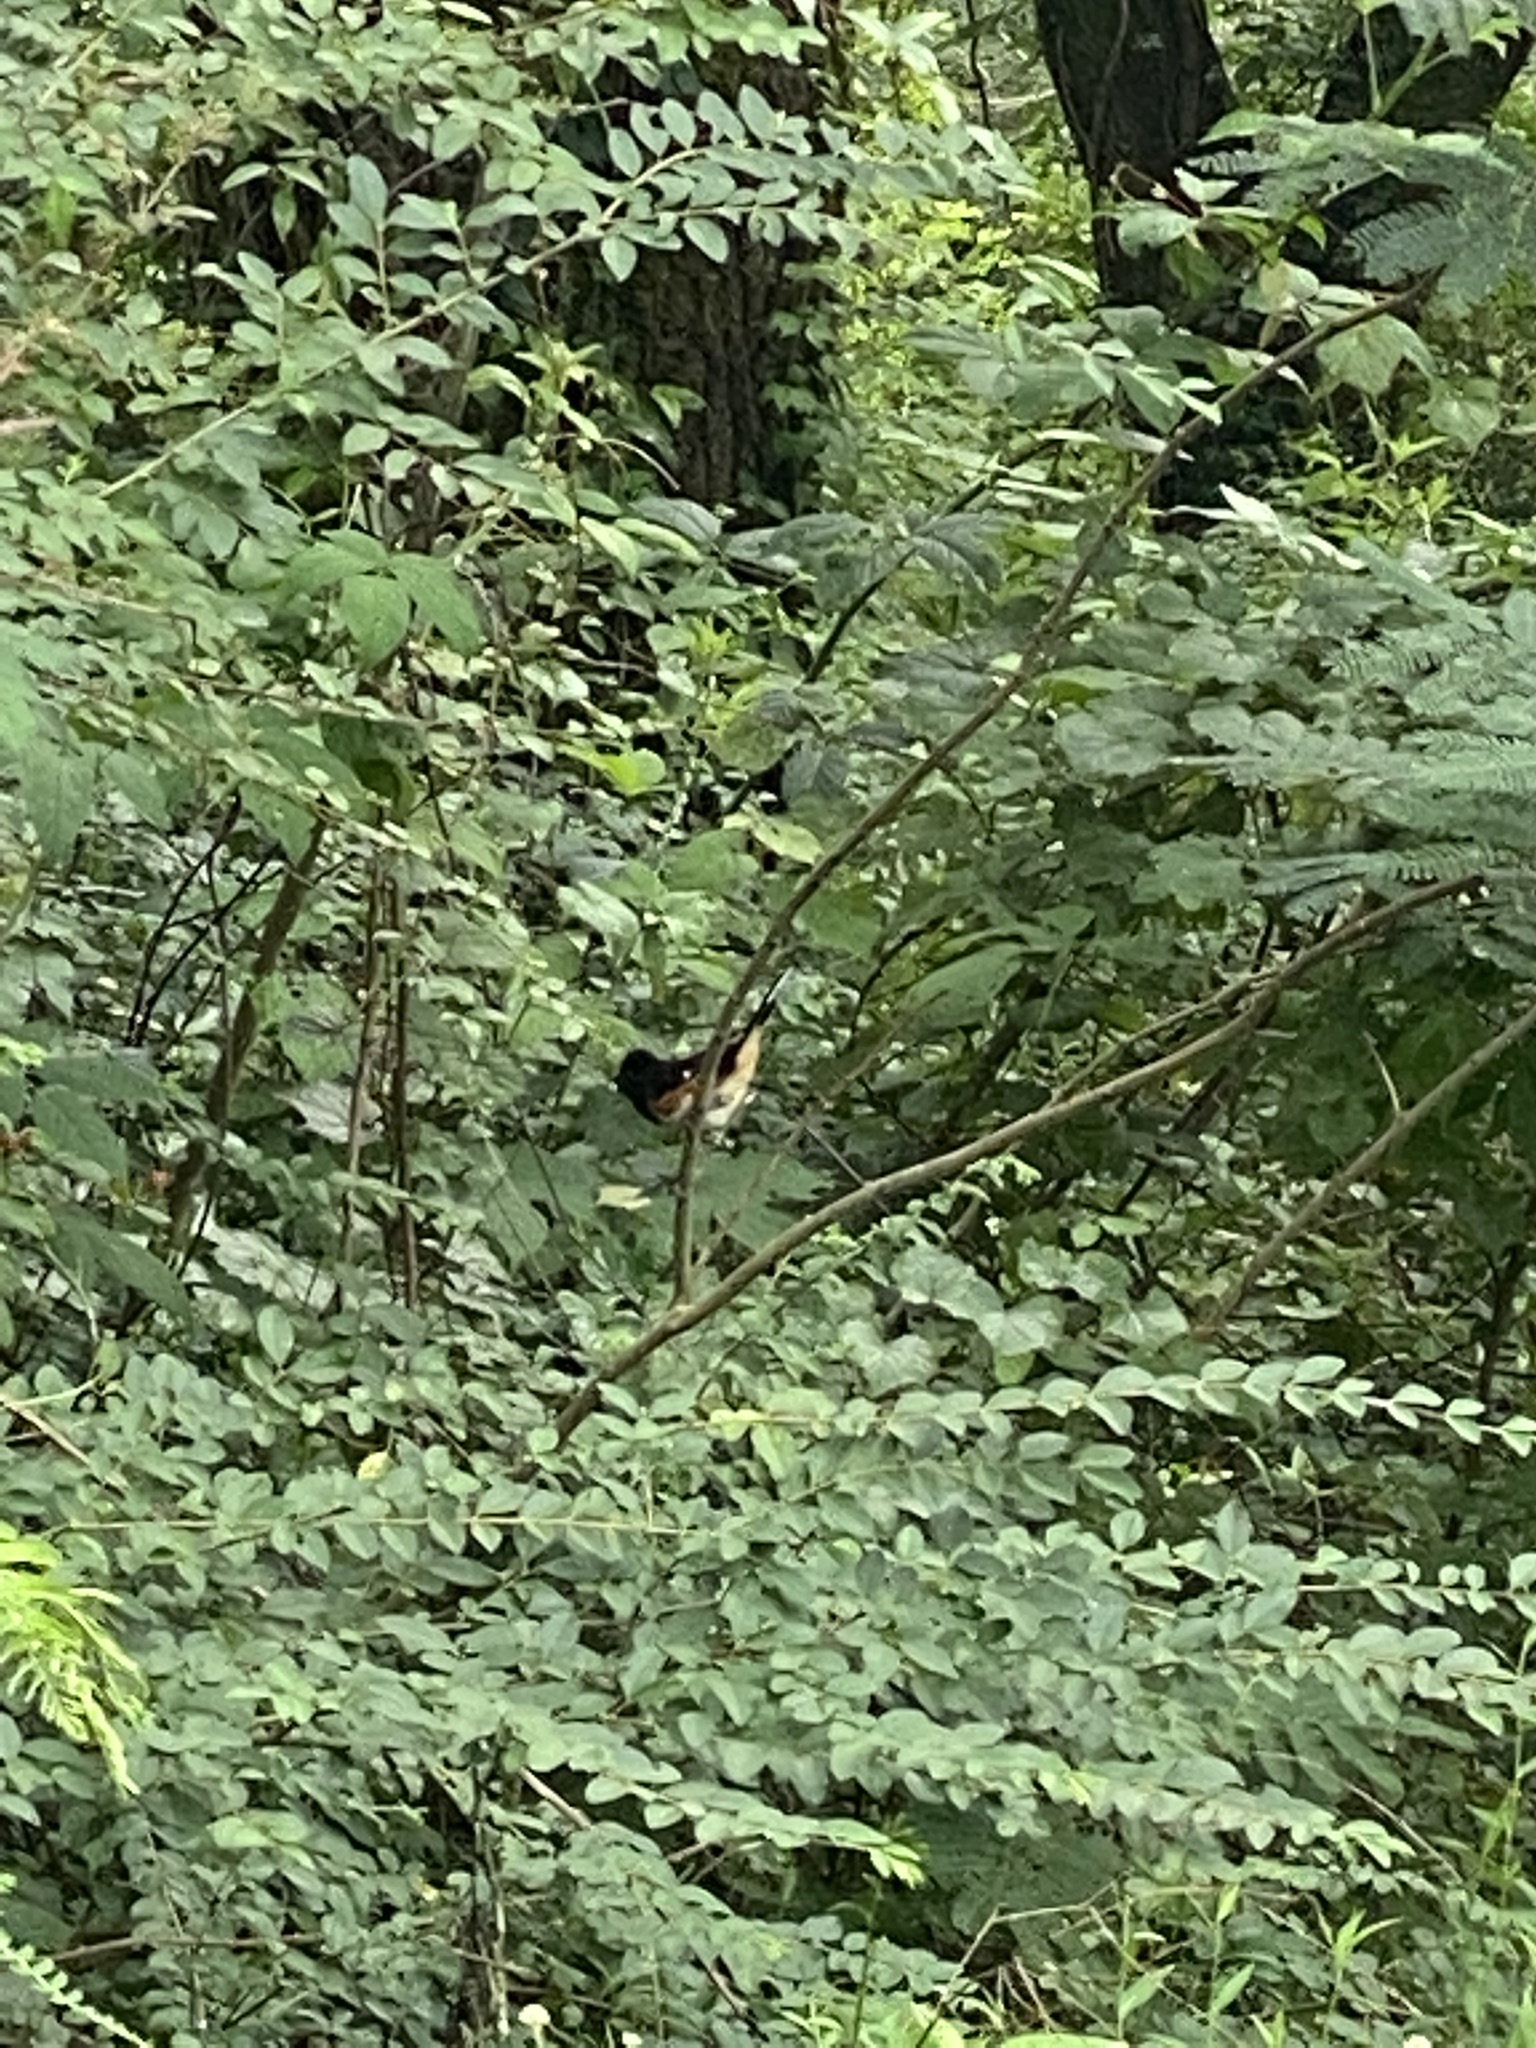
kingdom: Animalia
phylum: Chordata
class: Aves
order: Passeriformes
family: Passerellidae
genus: Pipilo
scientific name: Pipilo erythrophthalmus
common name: Eastern towhee
